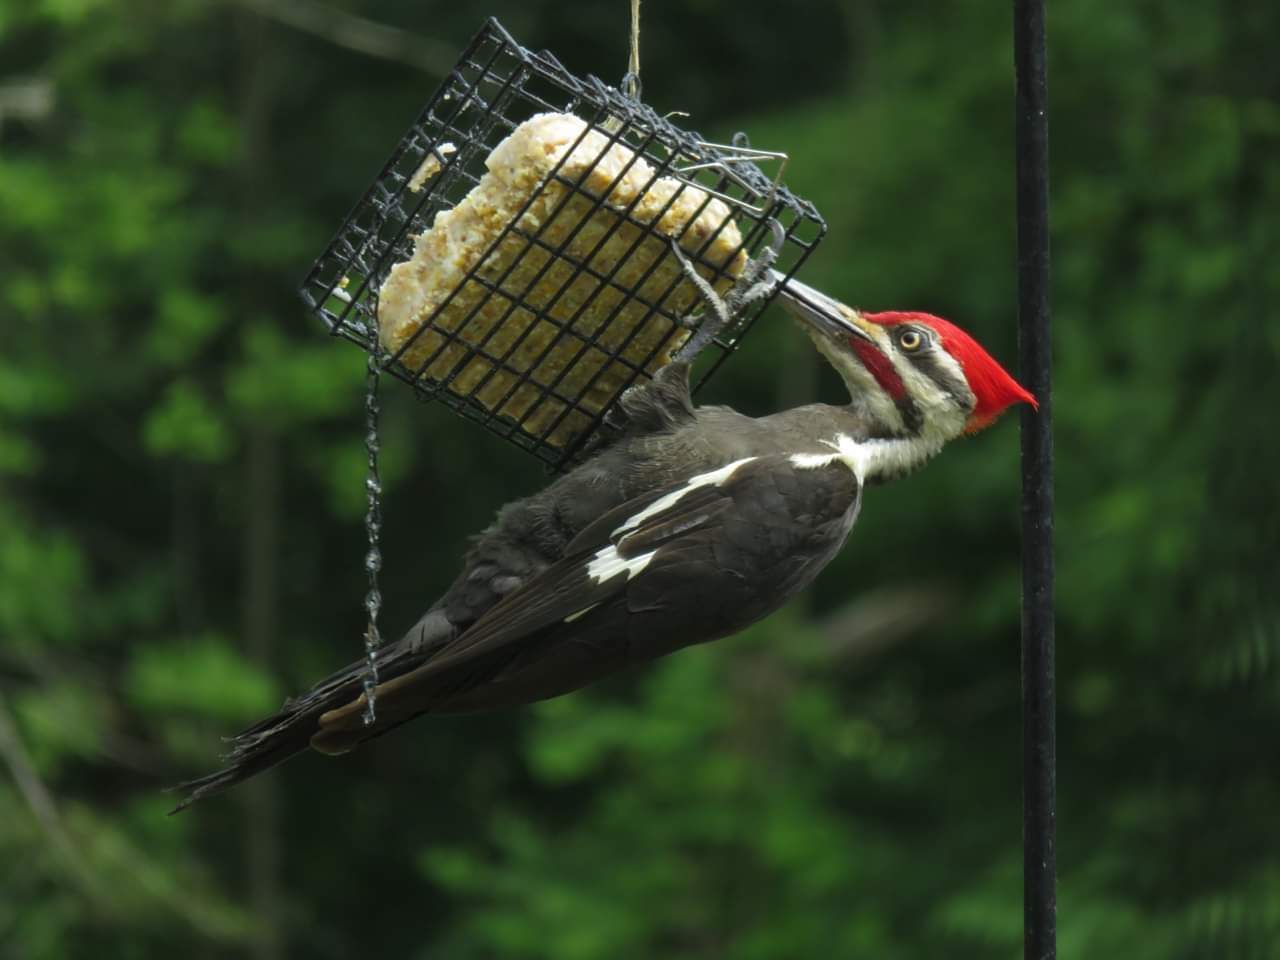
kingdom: Animalia
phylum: Chordata
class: Aves
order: Piciformes
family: Picidae
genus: Dryocopus
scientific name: Dryocopus pileatus
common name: Pileated woodpecker
